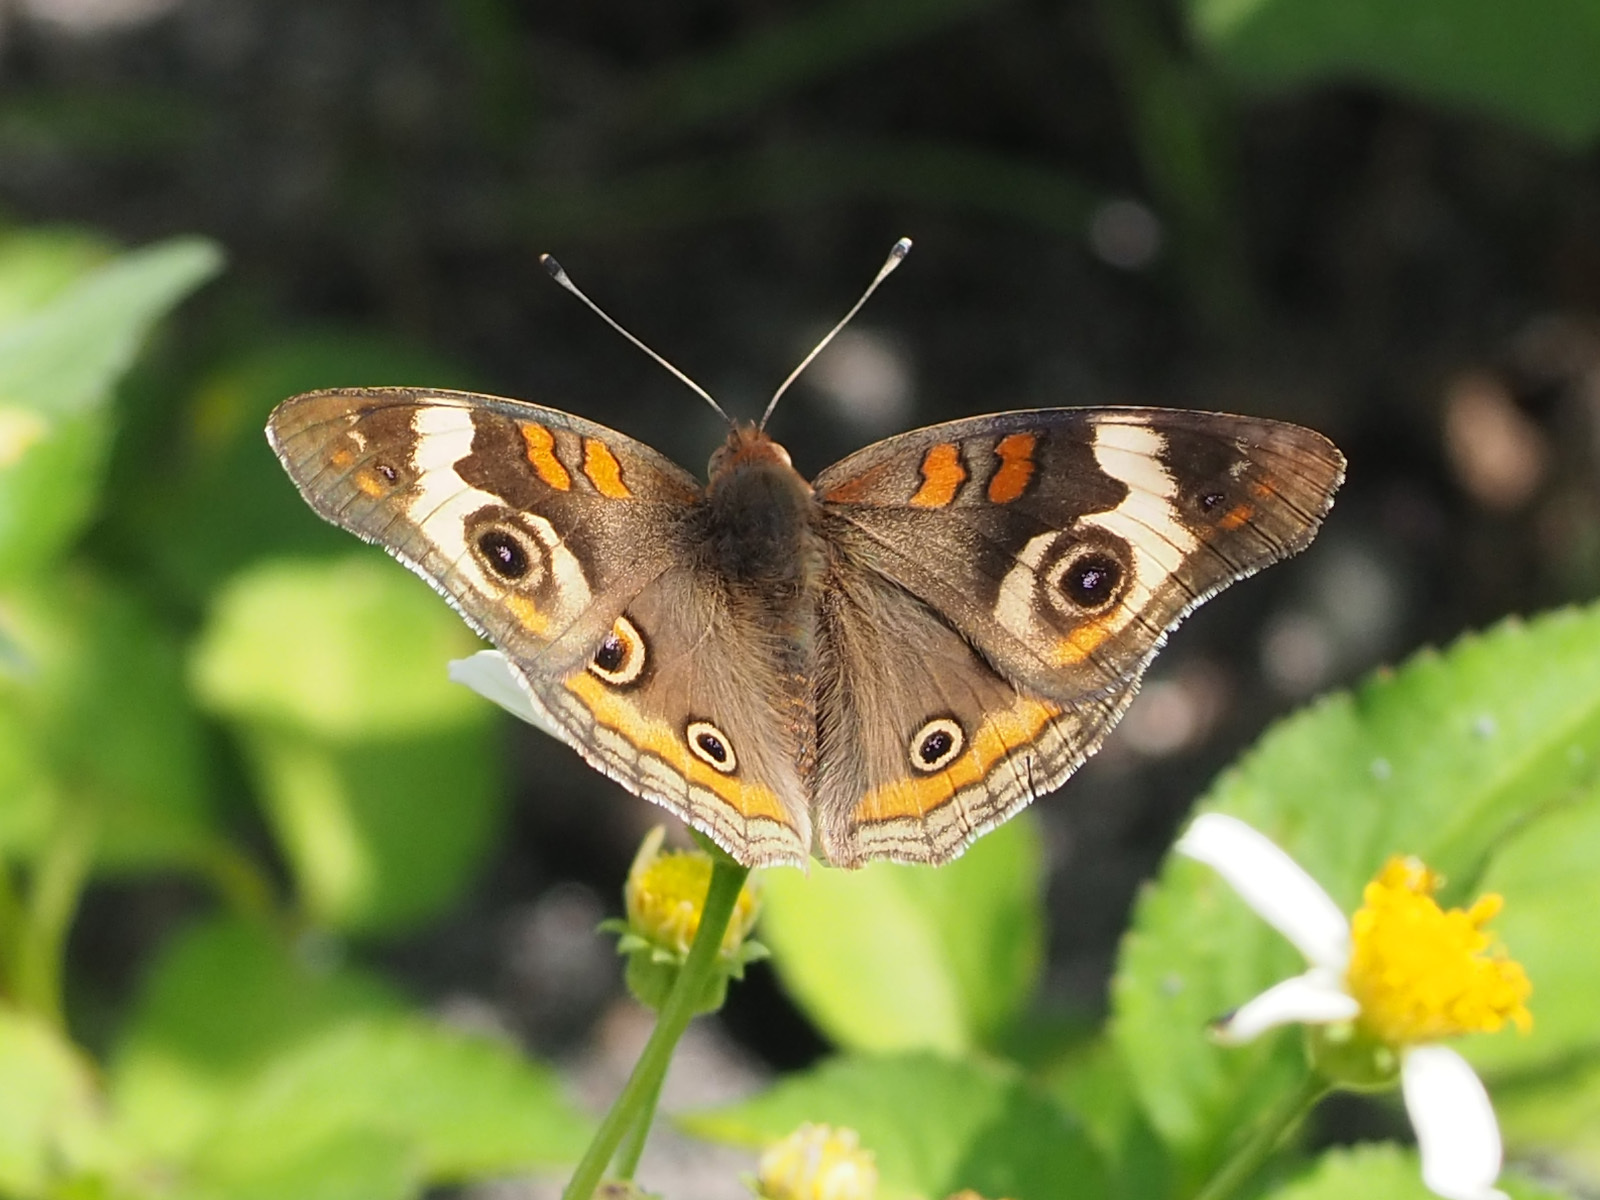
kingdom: Animalia
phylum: Arthropoda
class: Insecta
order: Lepidoptera
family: Nymphalidae
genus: Junonia
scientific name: Junonia coenia
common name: Common buckeye
